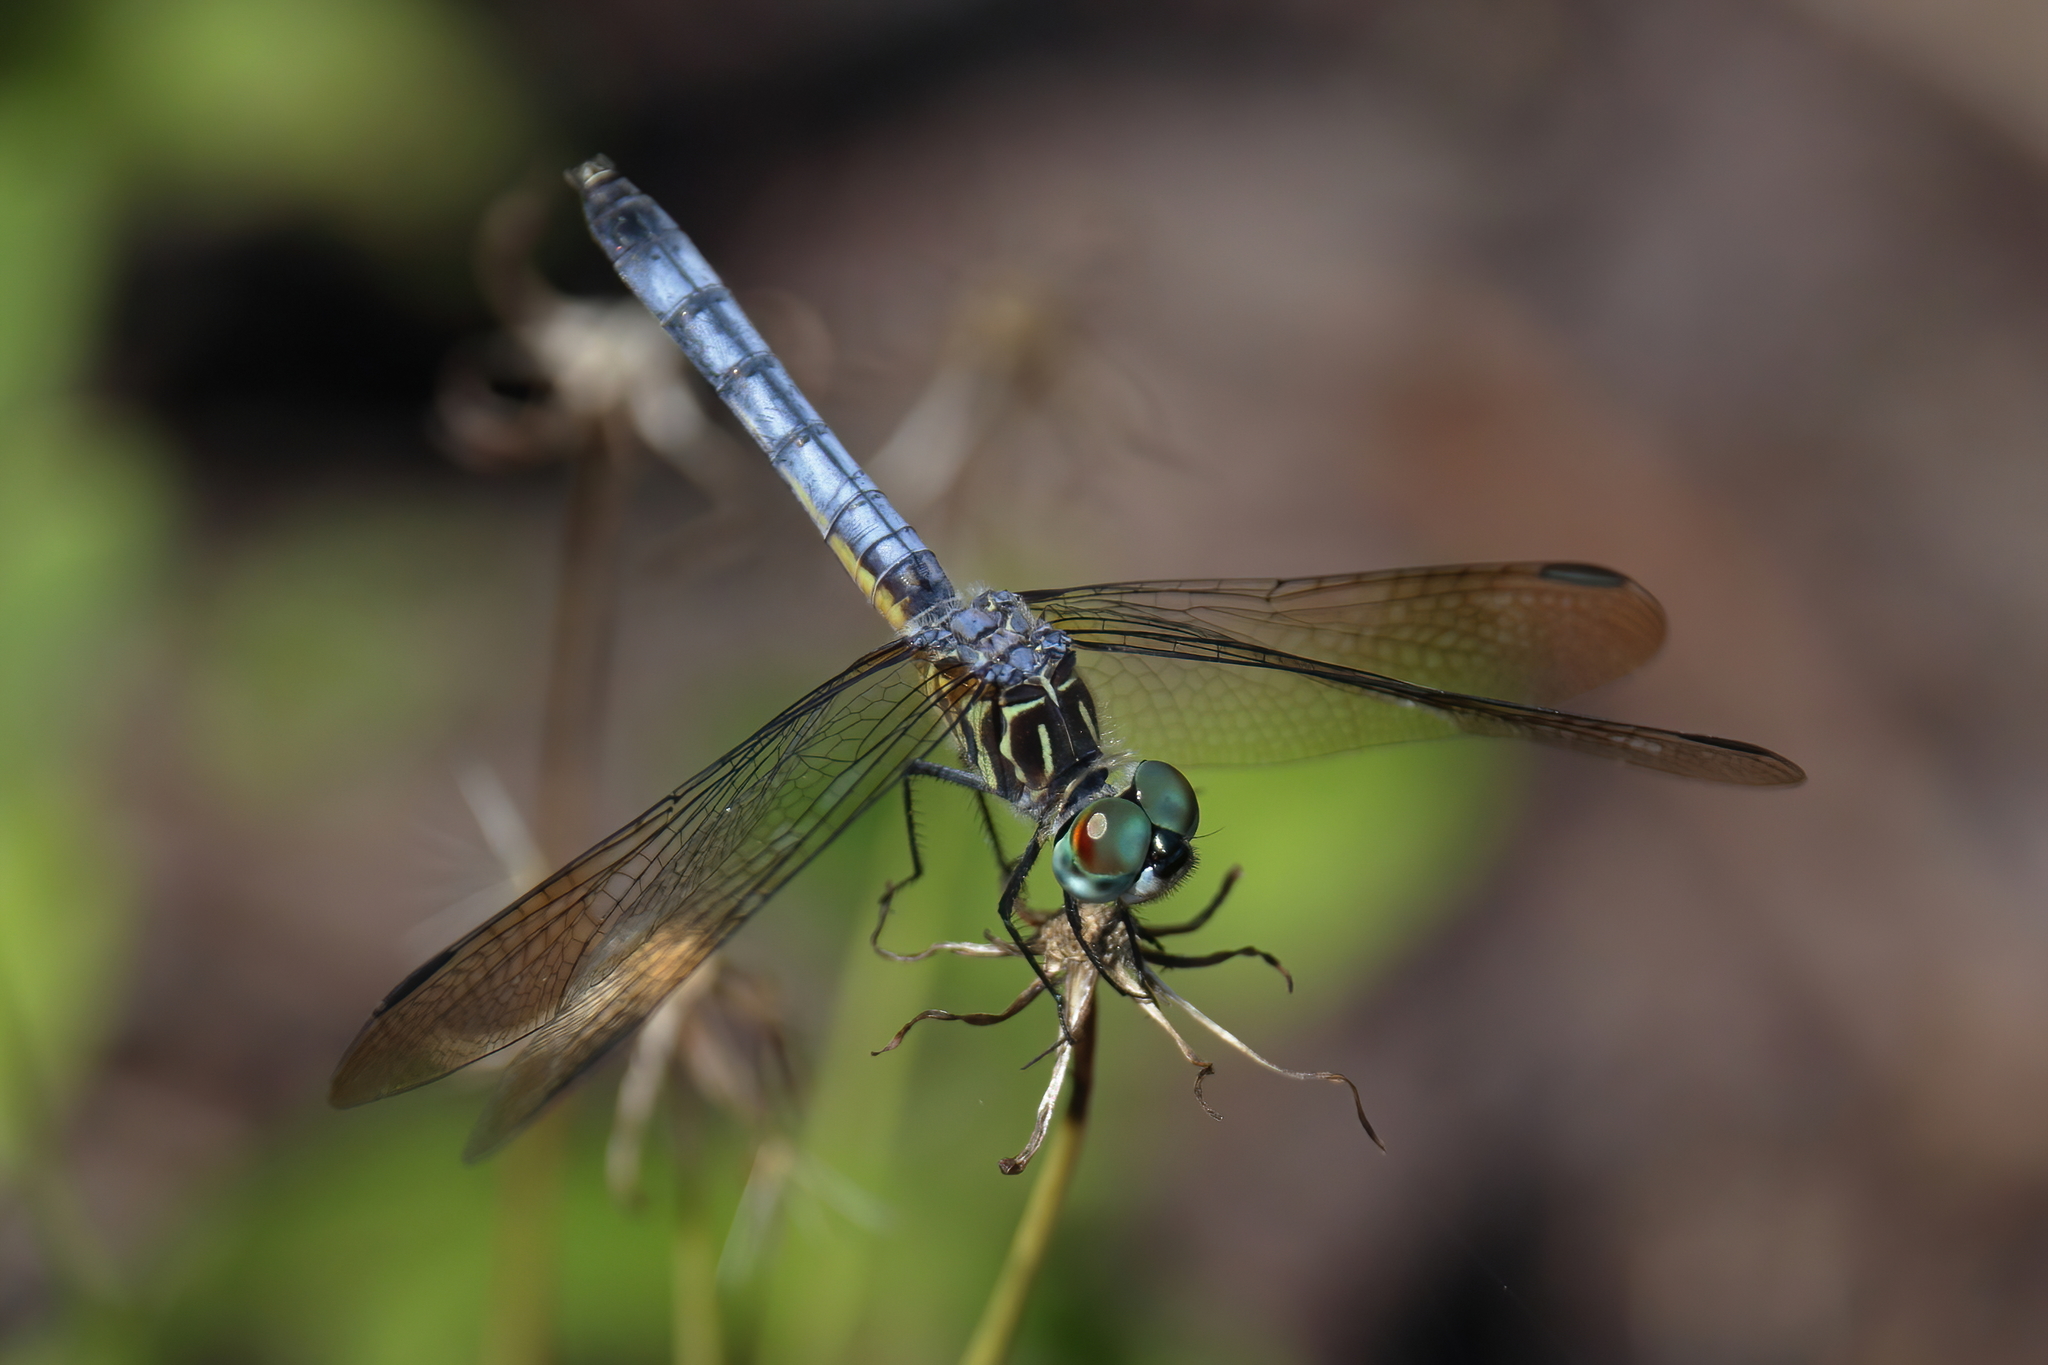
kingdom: Animalia
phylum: Arthropoda
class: Insecta
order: Odonata
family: Libellulidae
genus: Pachydiplax
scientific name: Pachydiplax longipennis
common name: Blue dasher
